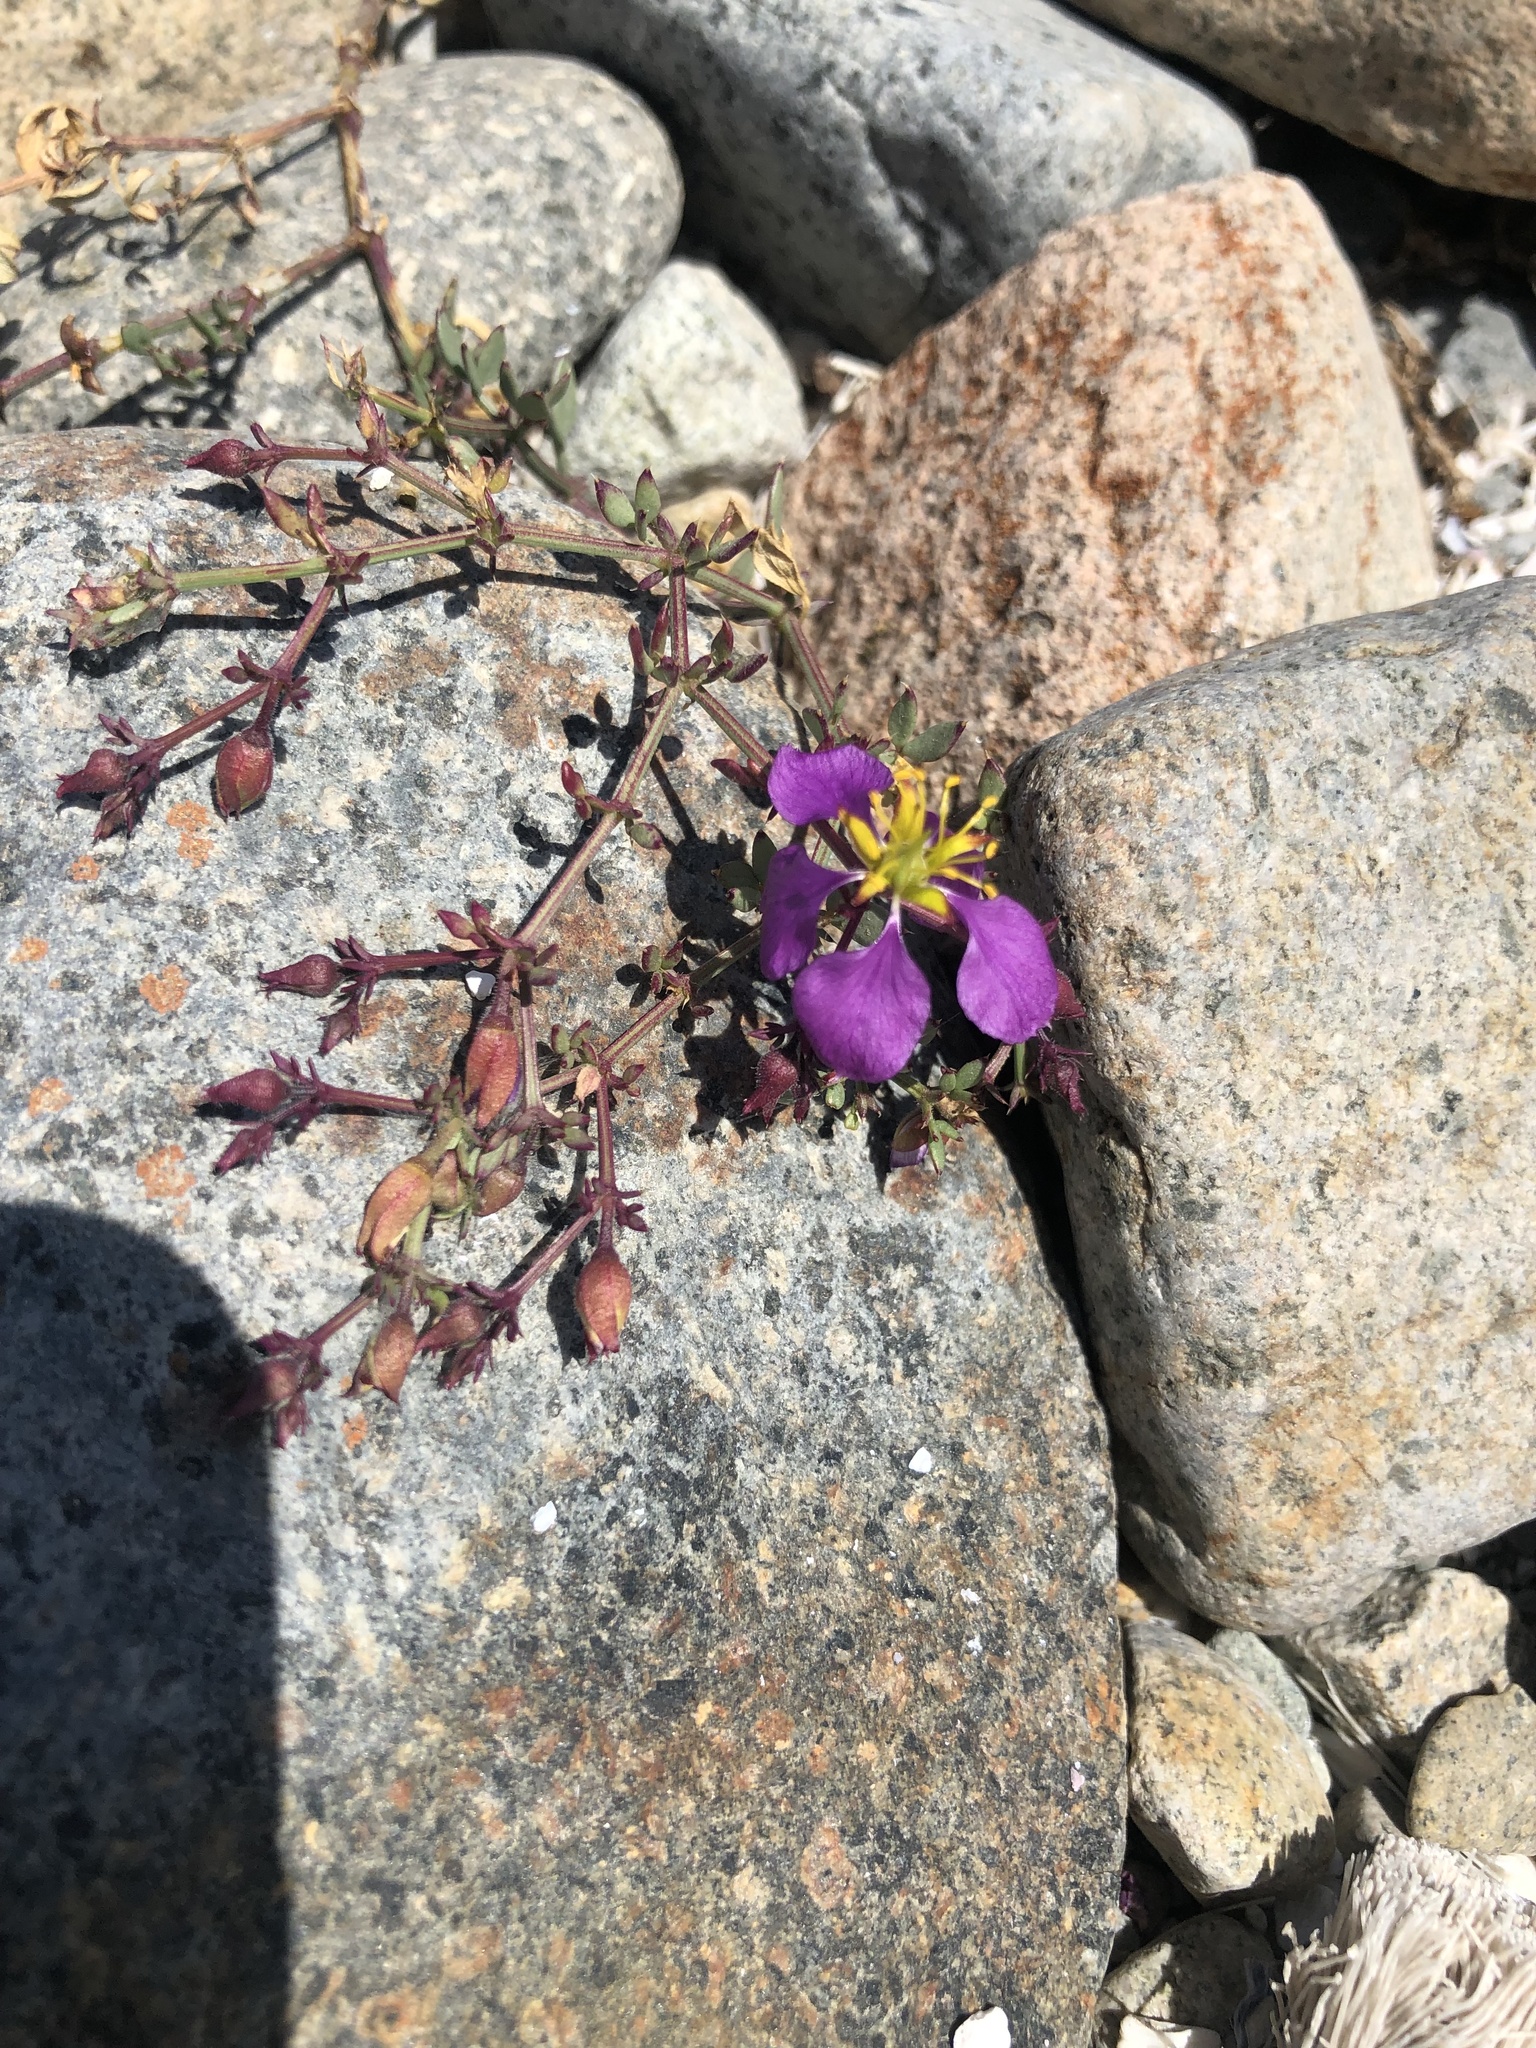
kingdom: Plantae
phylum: Tracheophyta
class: Magnoliopsida
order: Zygophyllales
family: Zygophyllaceae
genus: Fagonia
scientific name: Fagonia chilensis
